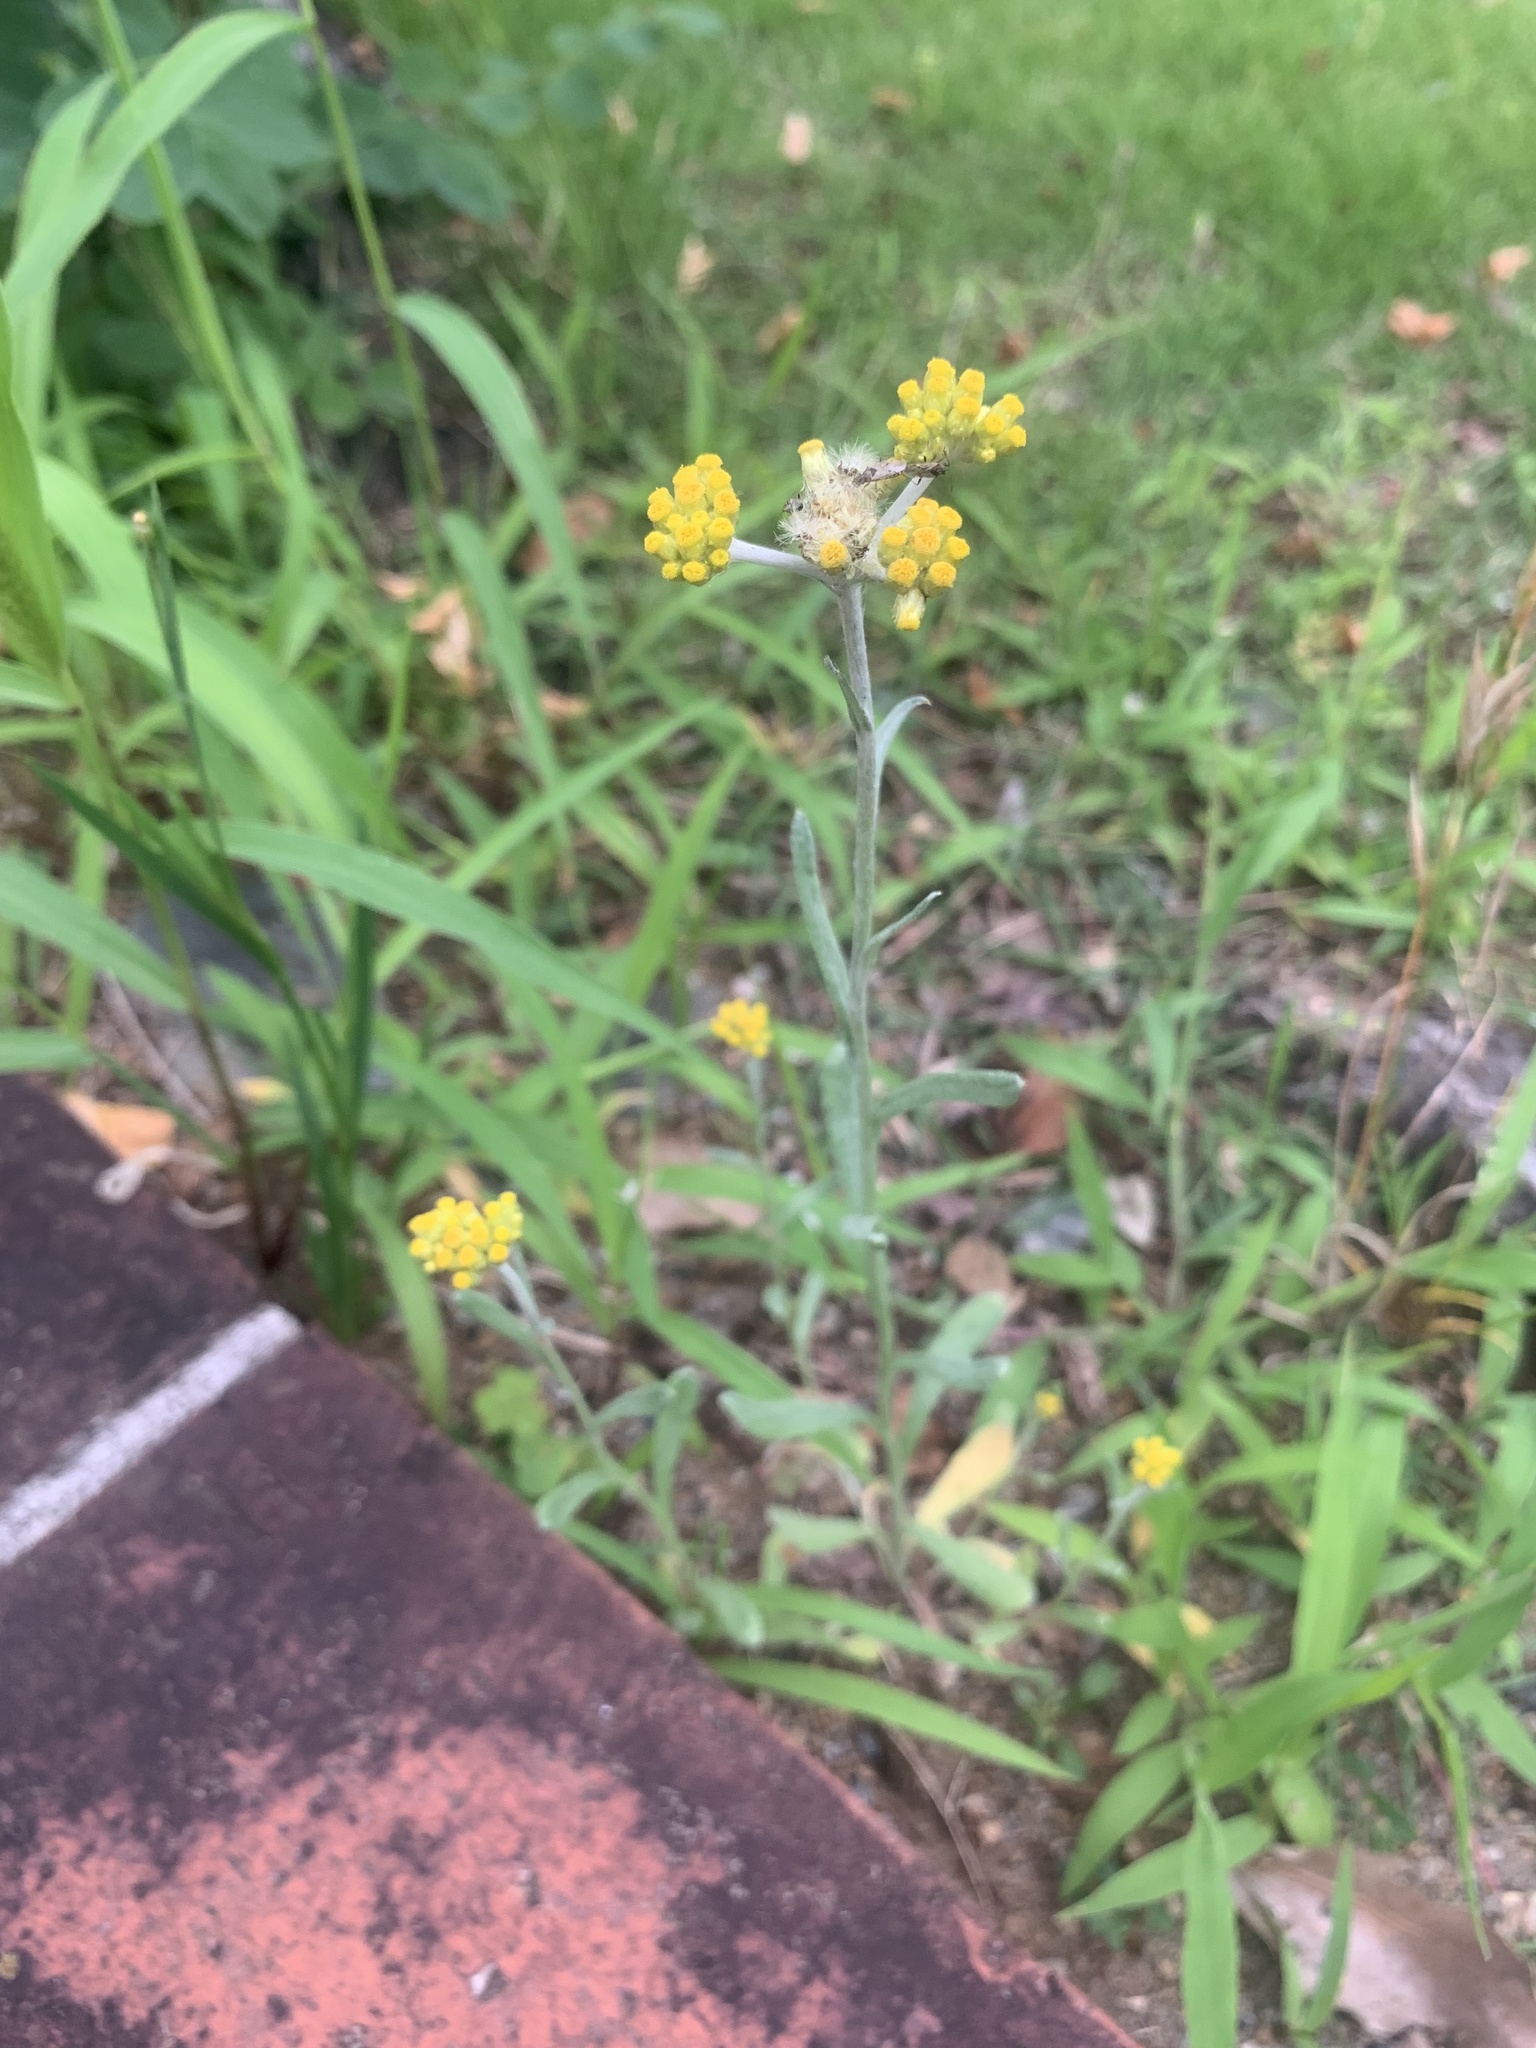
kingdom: Plantae
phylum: Tracheophyta
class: Magnoliopsida
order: Asterales
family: Asteraceae
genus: Pseudognaphalium
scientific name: Pseudognaphalium affine
